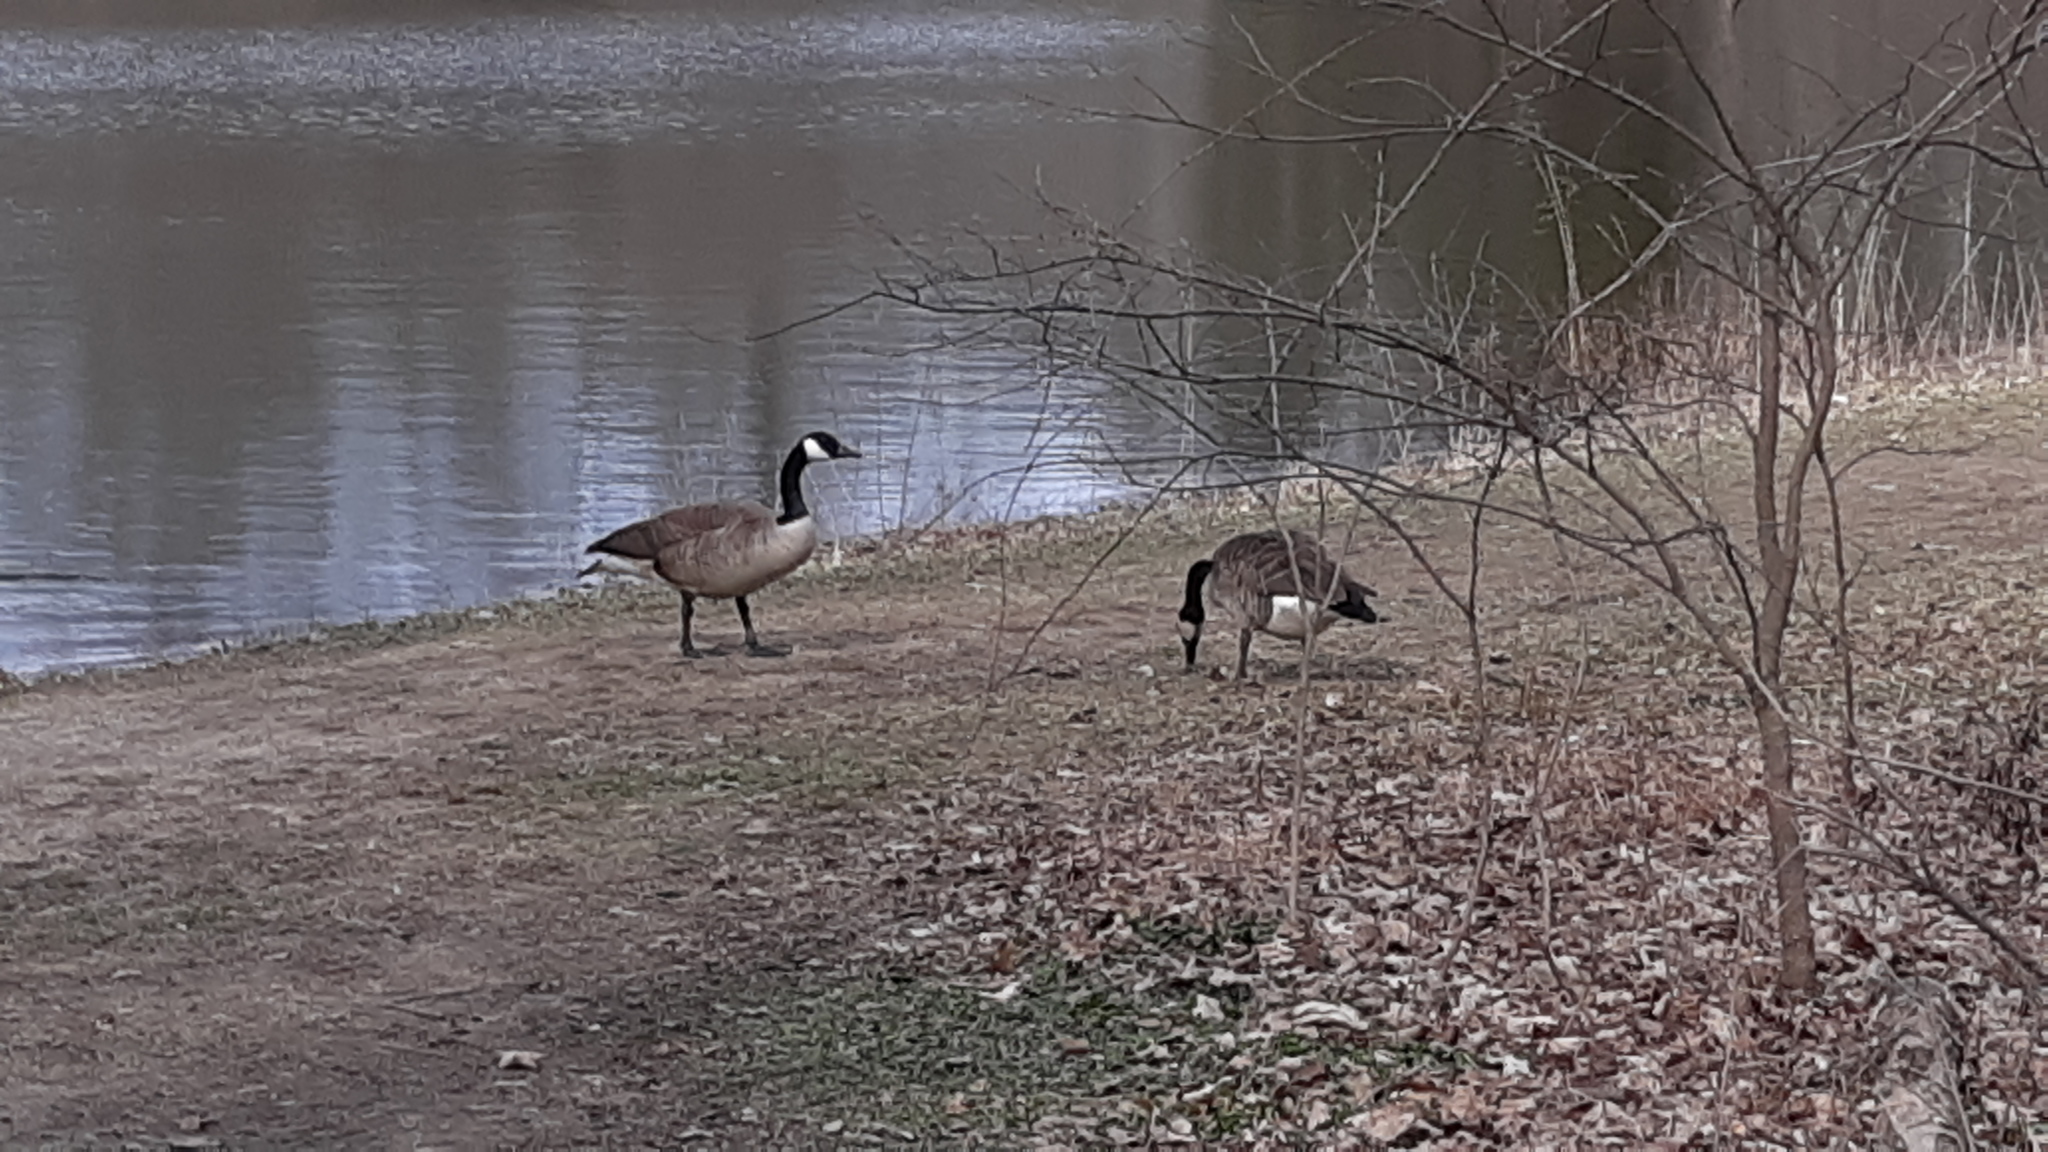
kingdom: Animalia
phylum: Chordata
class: Aves
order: Anseriformes
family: Anatidae
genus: Branta
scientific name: Branta canadensis
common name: Canada goose
